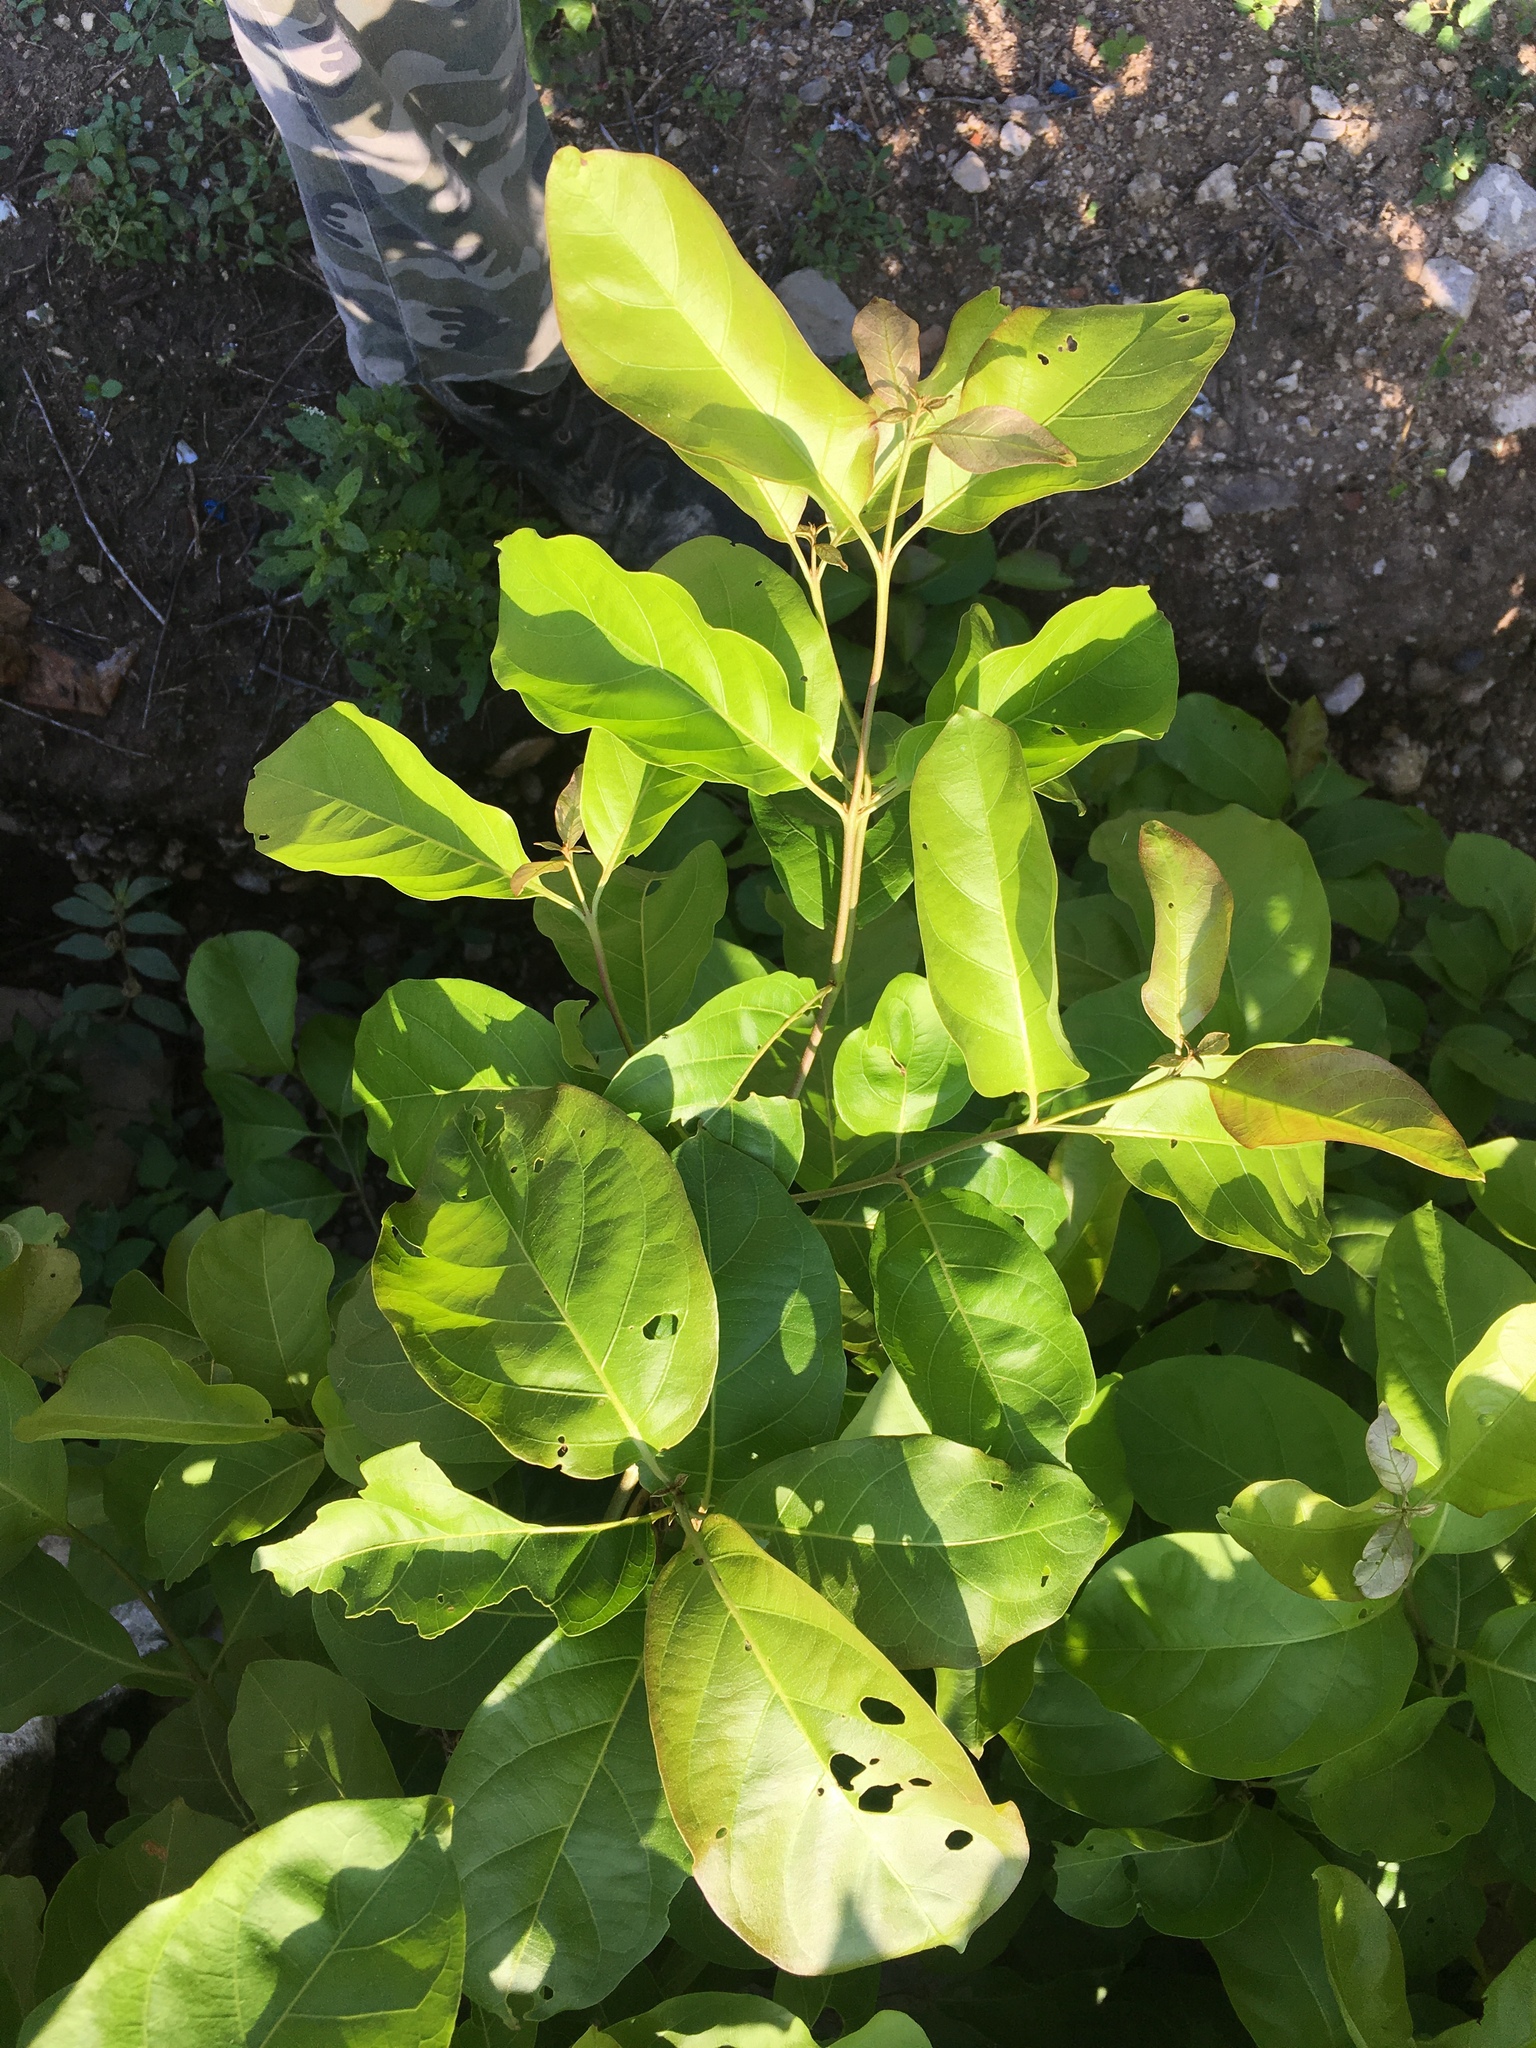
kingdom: Plantae
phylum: Tracheophyta
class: Magnoliopsida
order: Myrtales
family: Combretaceae
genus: Combretum
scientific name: Combretum fruticosum
